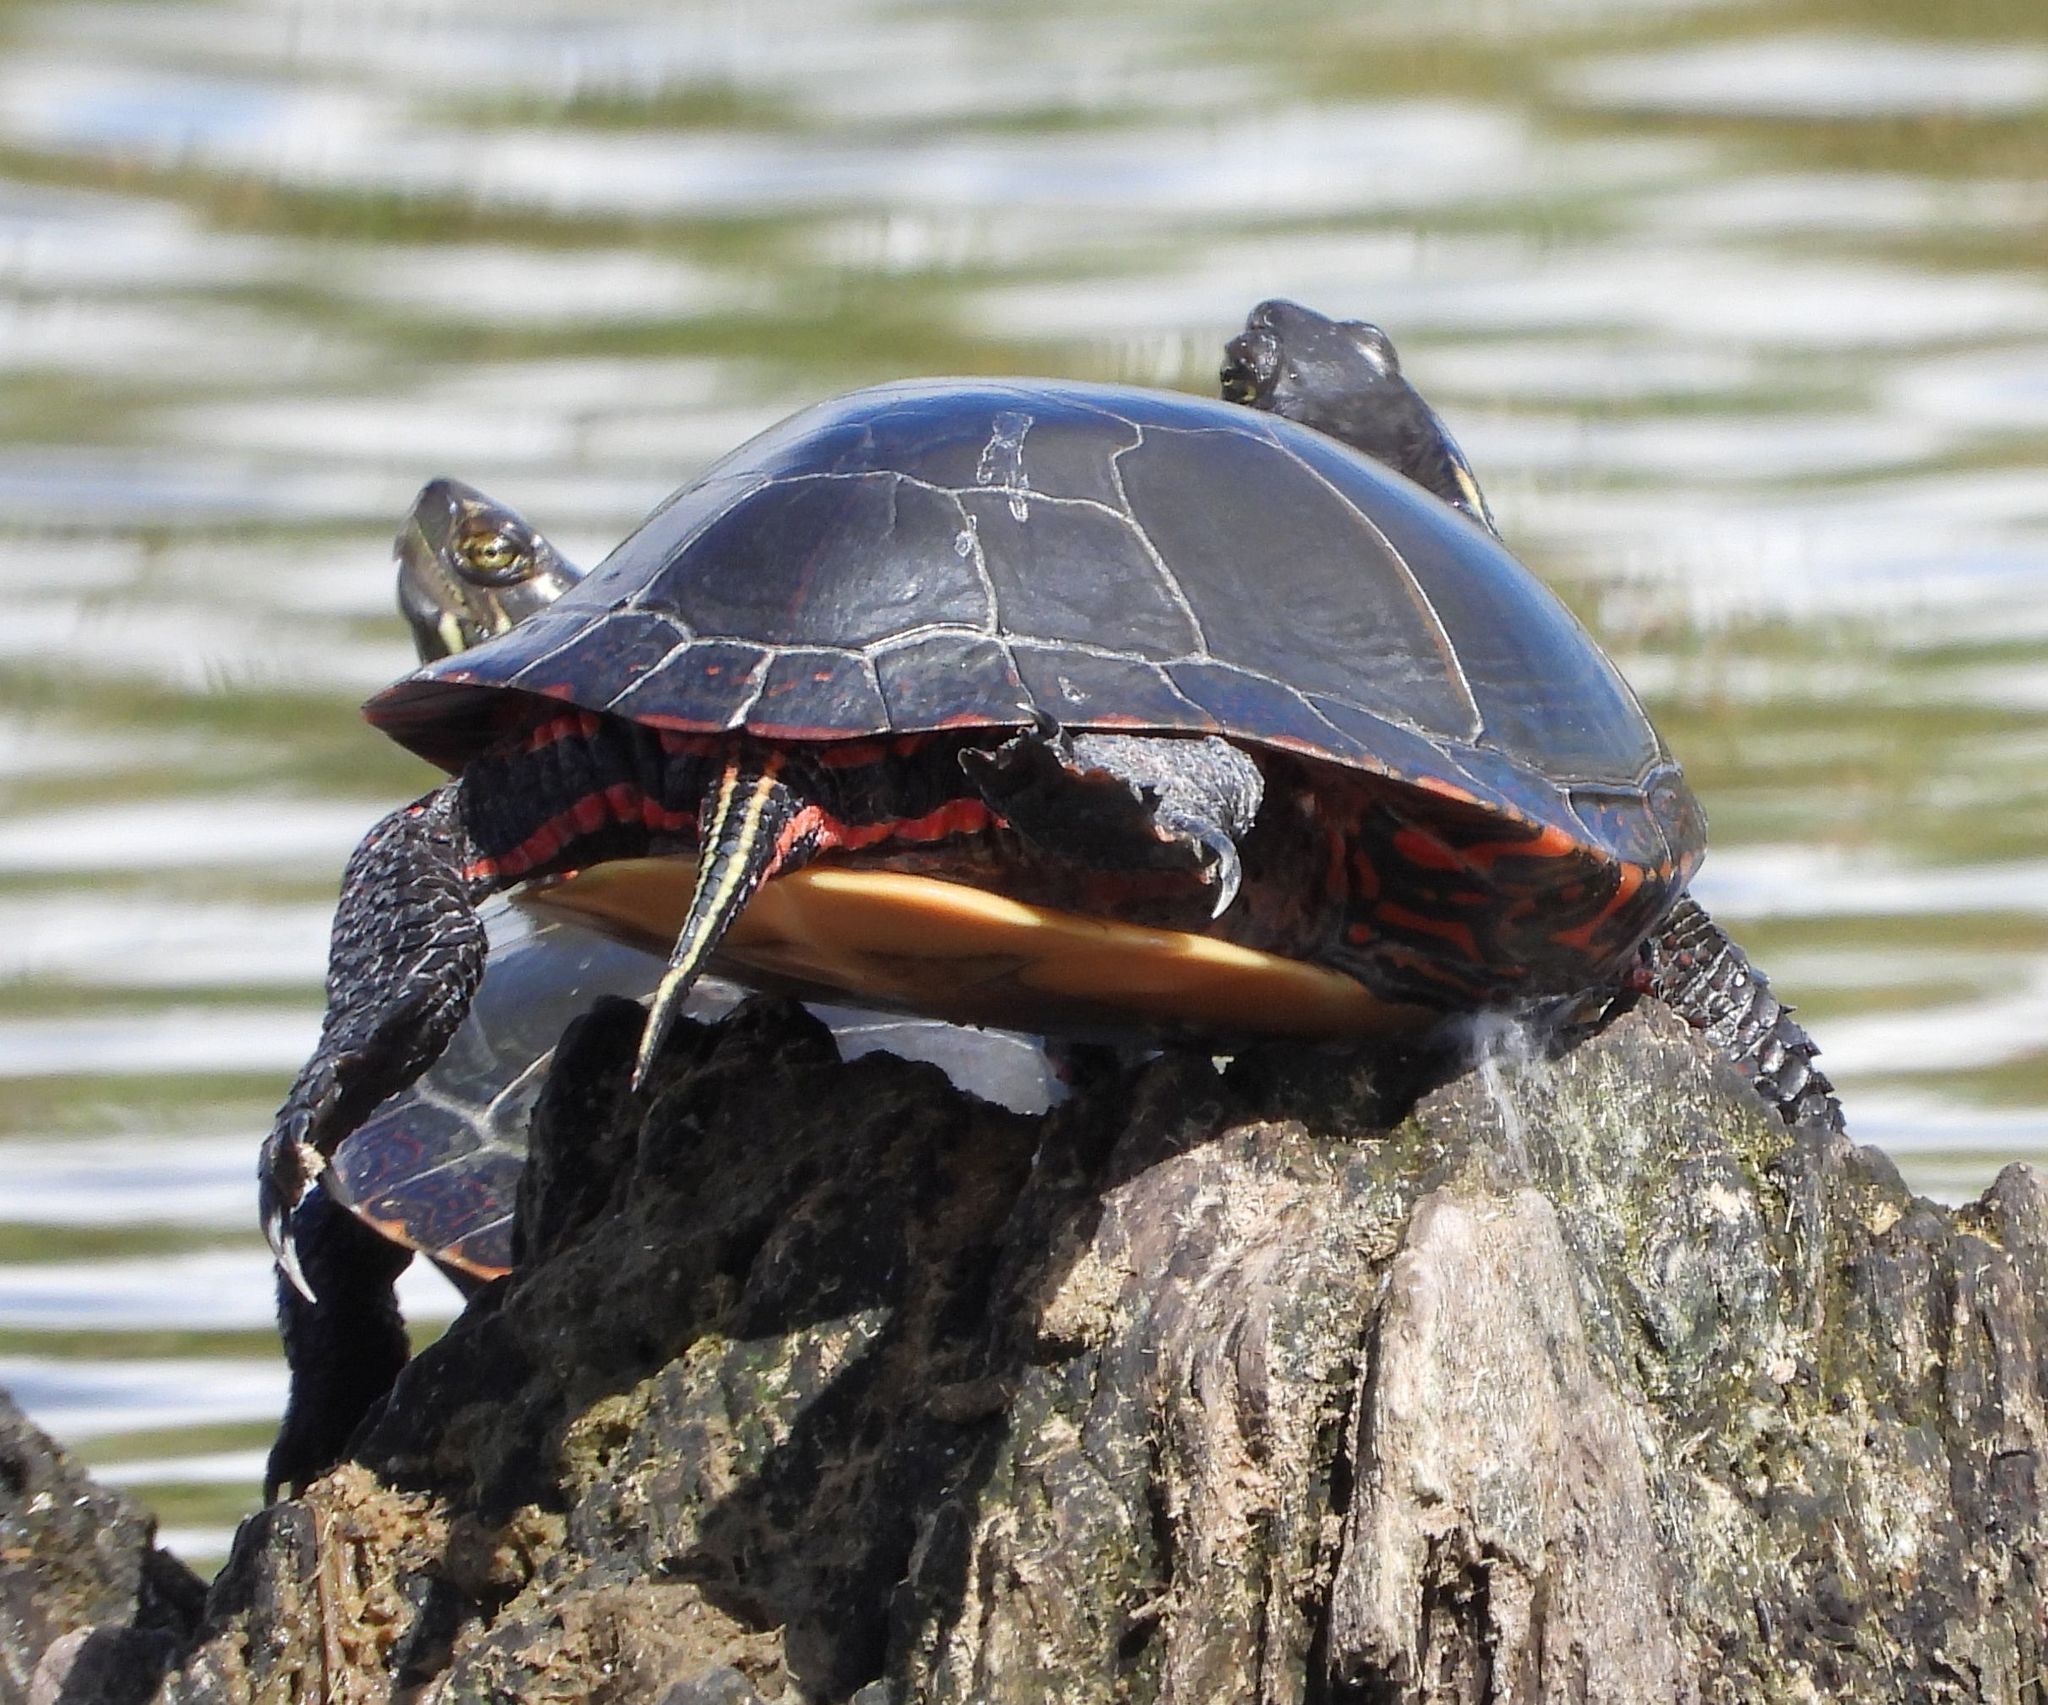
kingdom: Animalia
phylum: Chordata
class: Testudines
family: Emydidae
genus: Chrysemys
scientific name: Chrysemys picta
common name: Painted turtle
